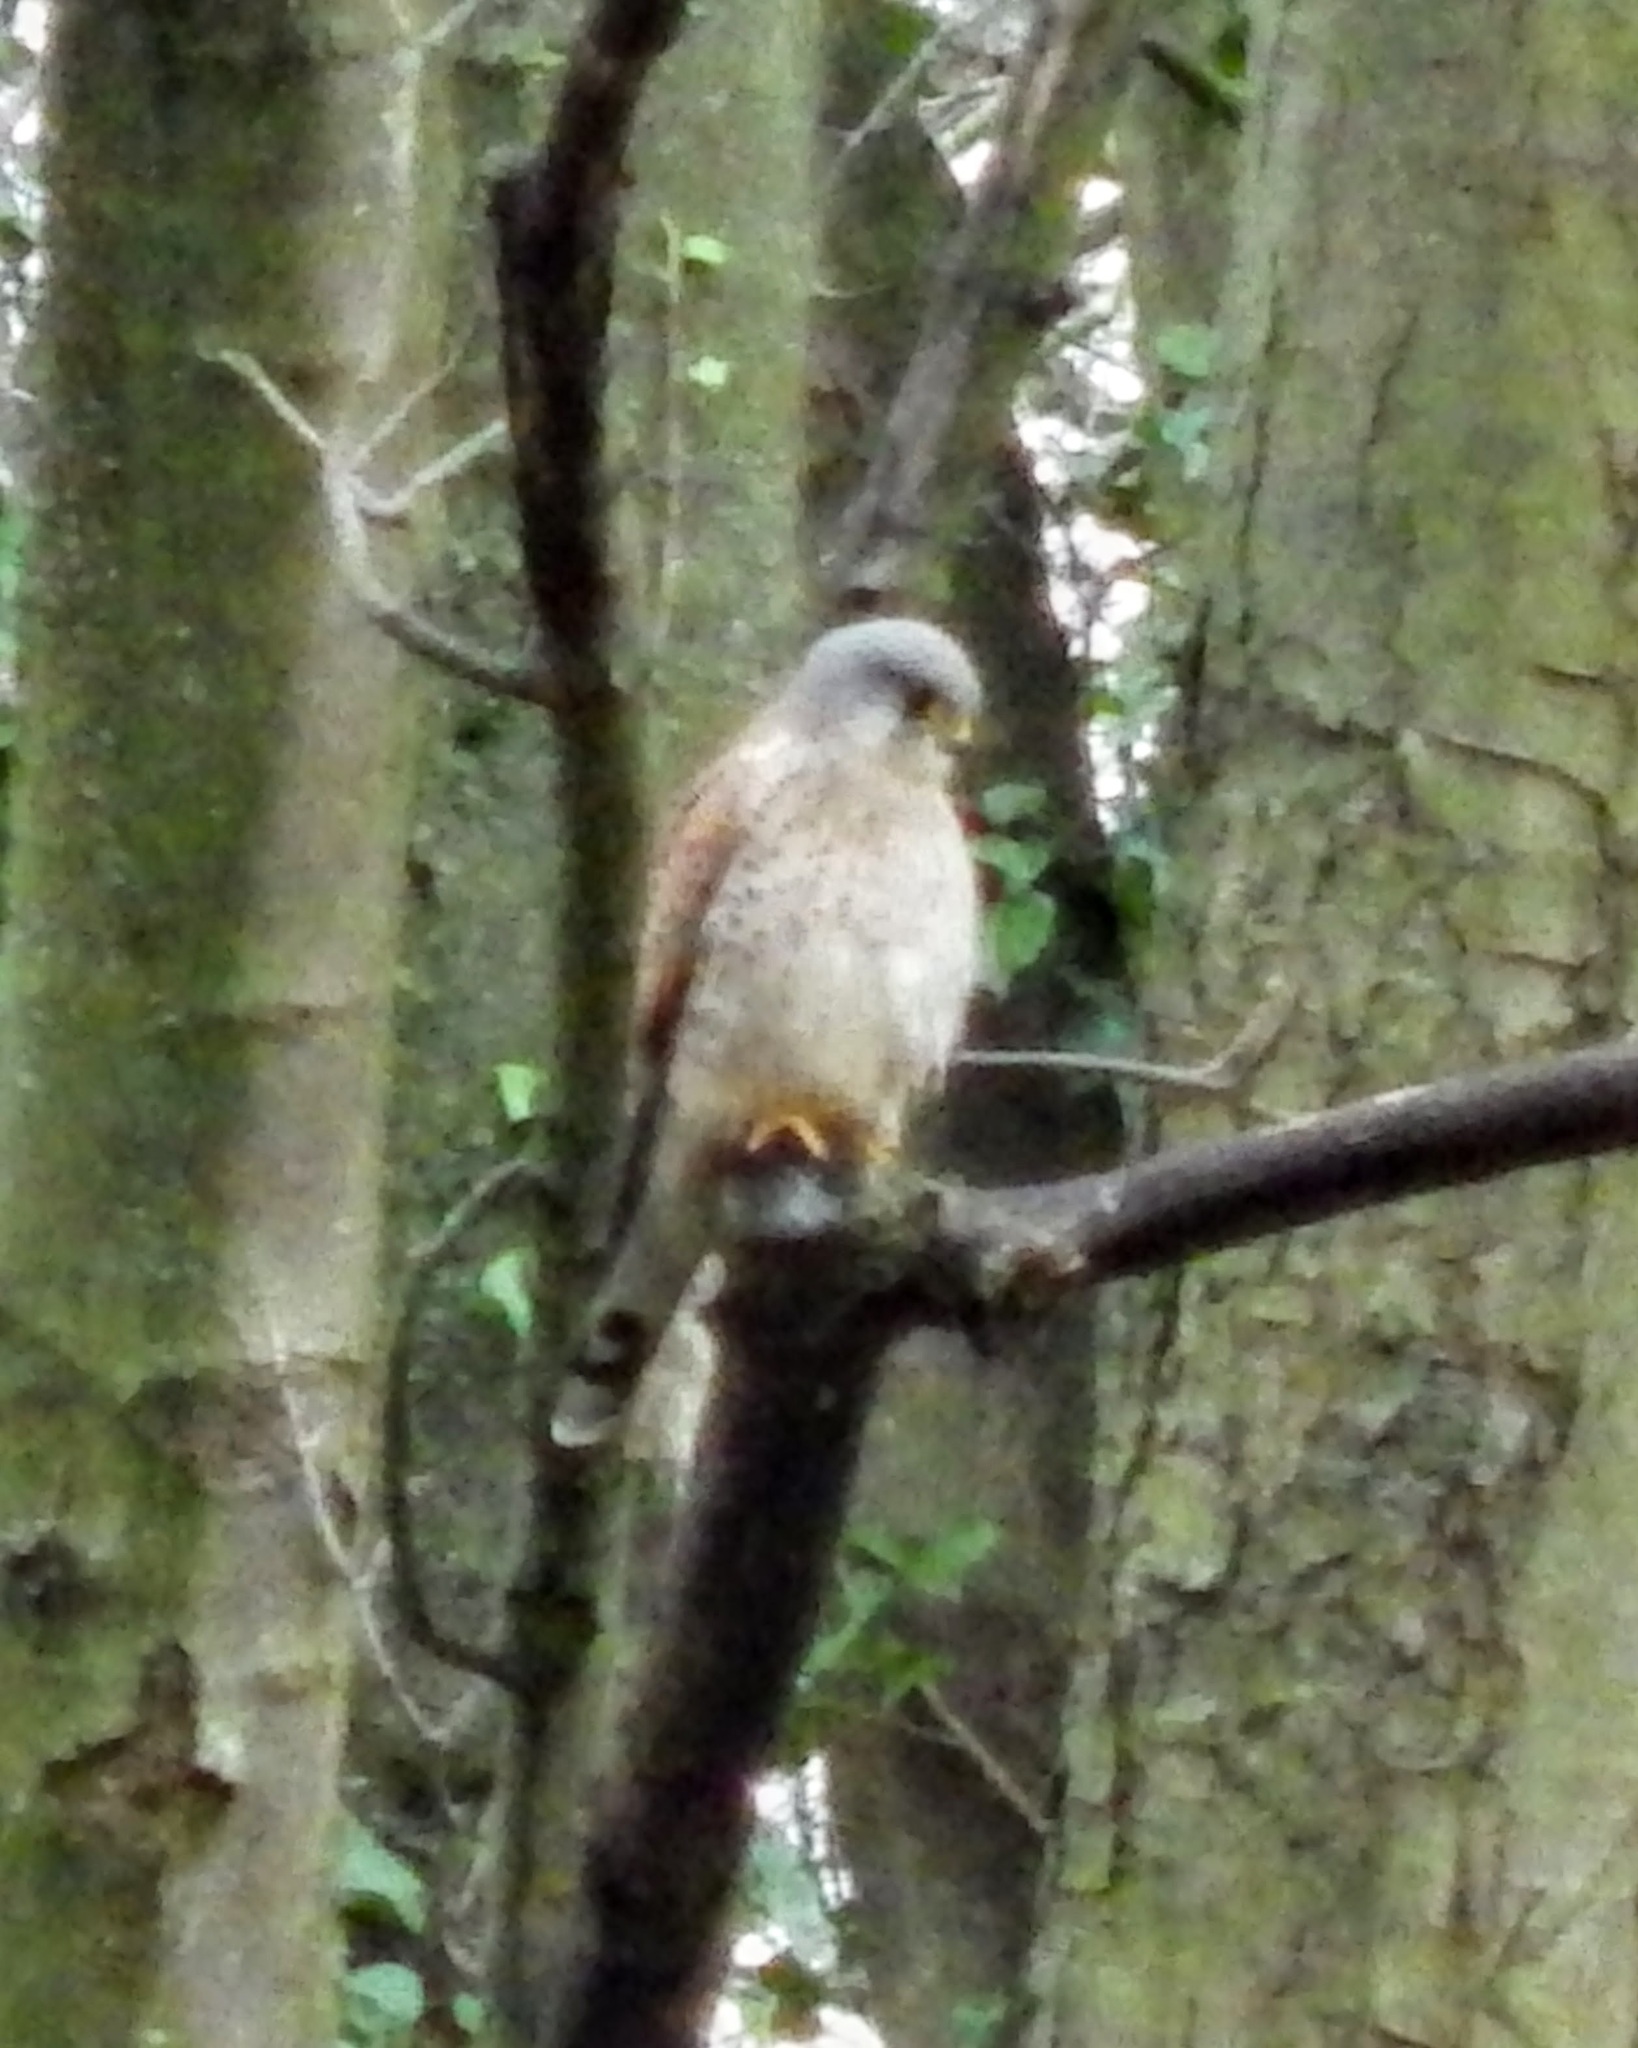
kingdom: Animalia
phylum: Chordata
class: Aves
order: Falconiformes
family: Falconidae
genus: Falco
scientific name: Falco tinnunculus
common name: Common kestrel
